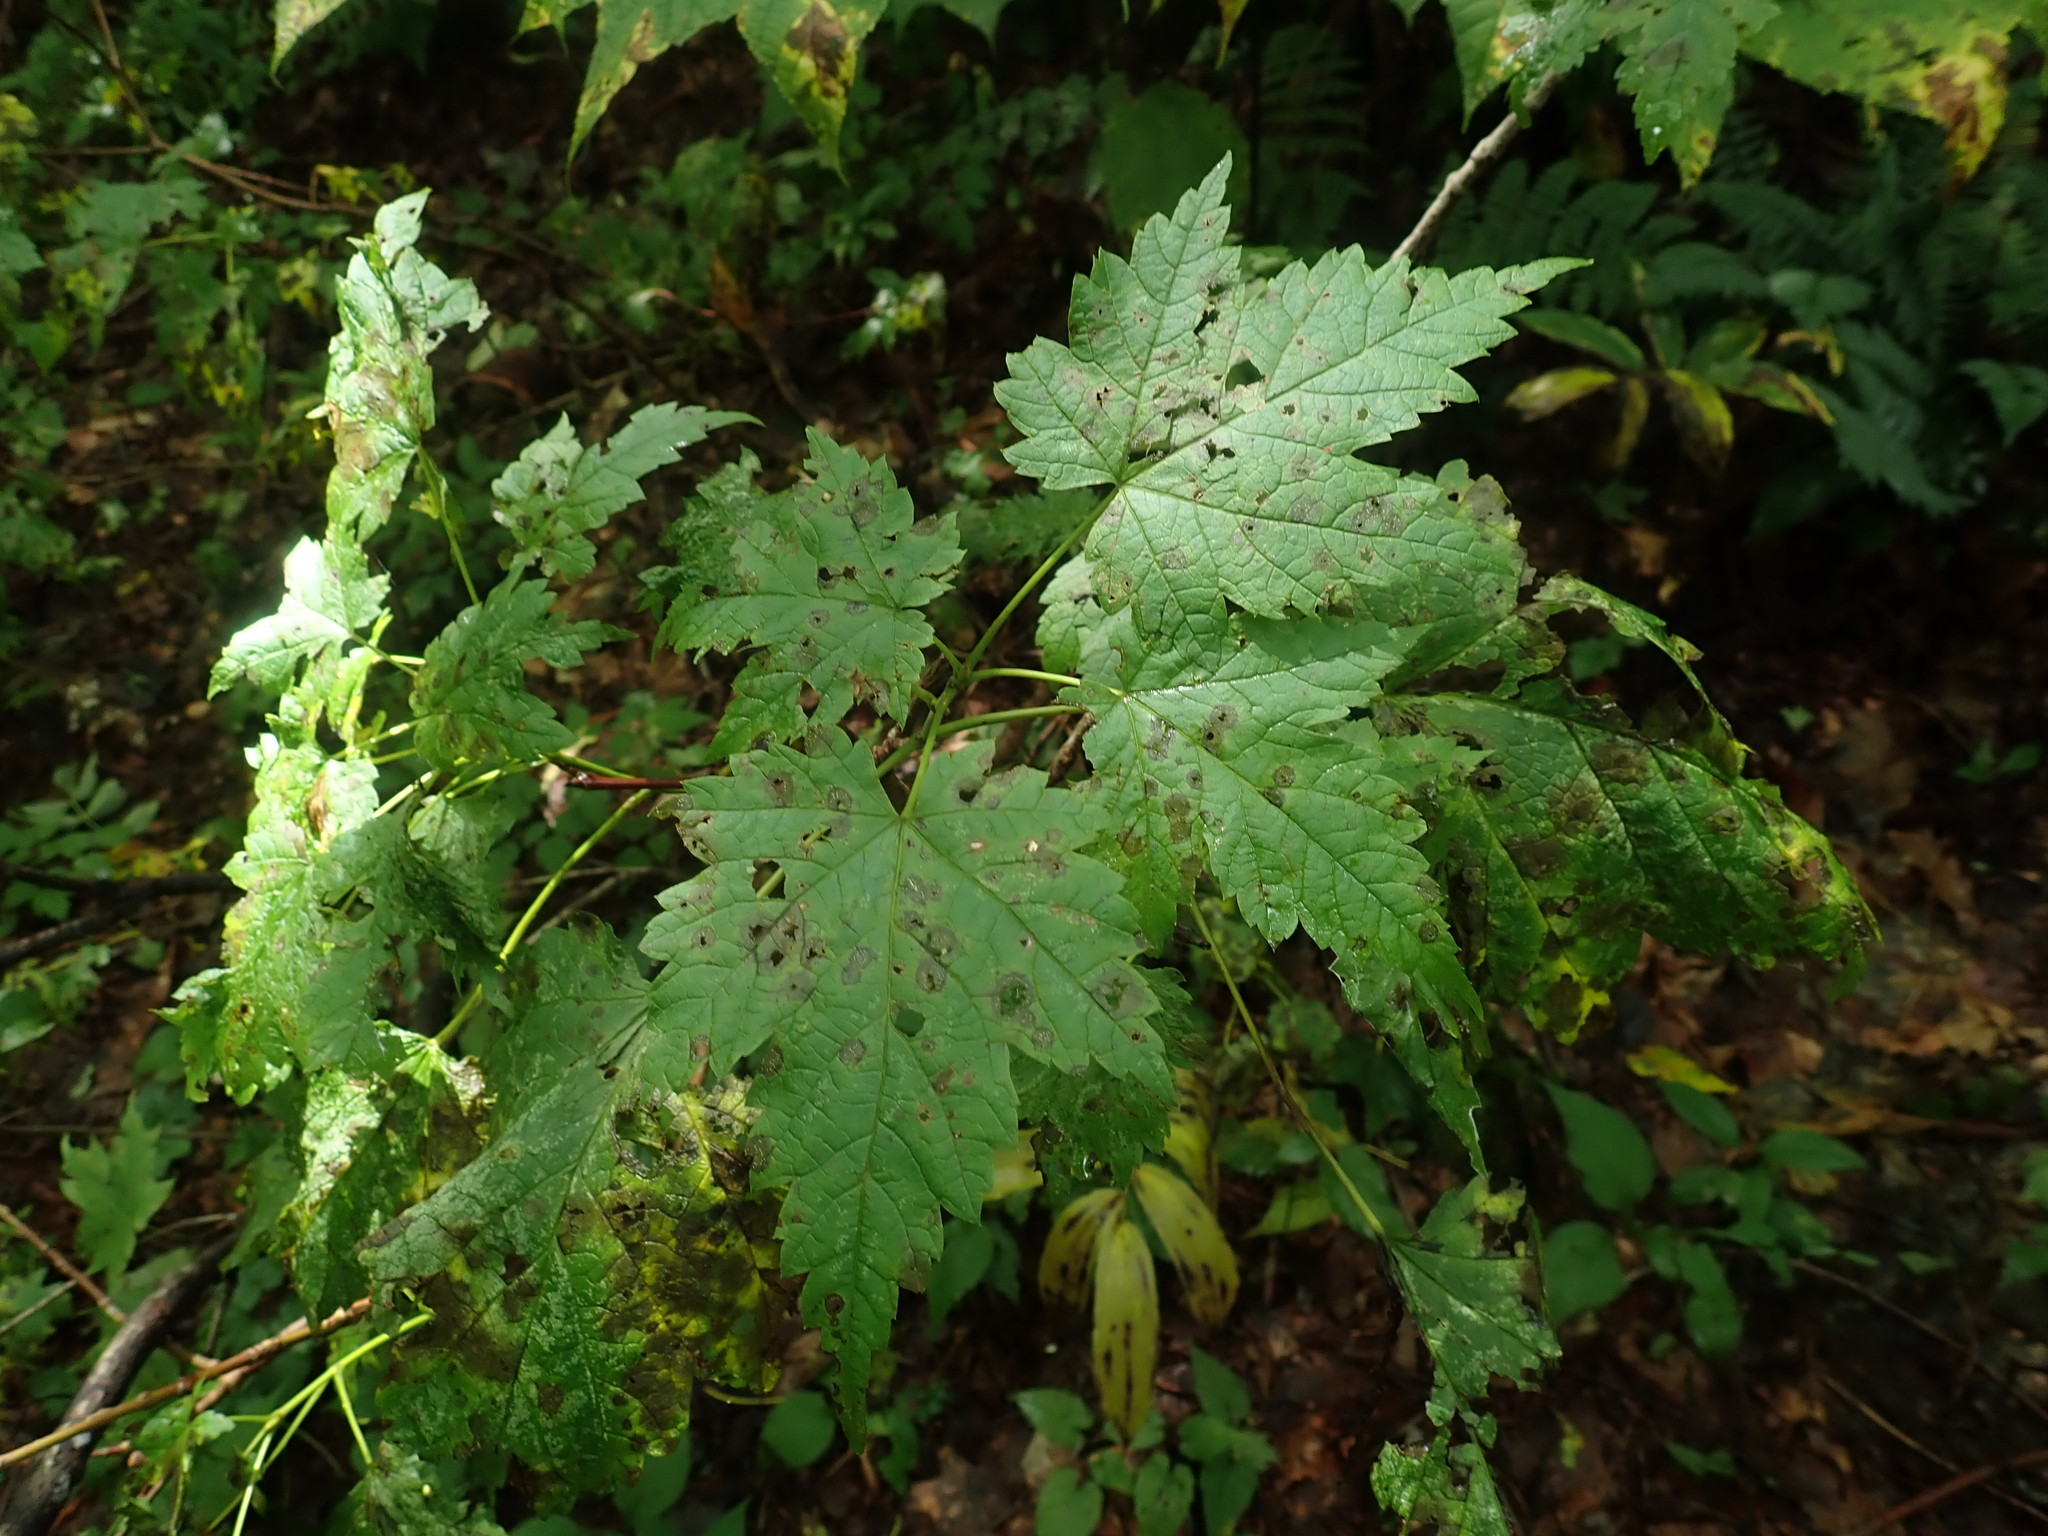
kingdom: Plantae
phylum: Tracheophyta
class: Magnoliopsida
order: Sapindales
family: Sapindaceae
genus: Acer
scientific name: Acer spicatum
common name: Mountain maple
